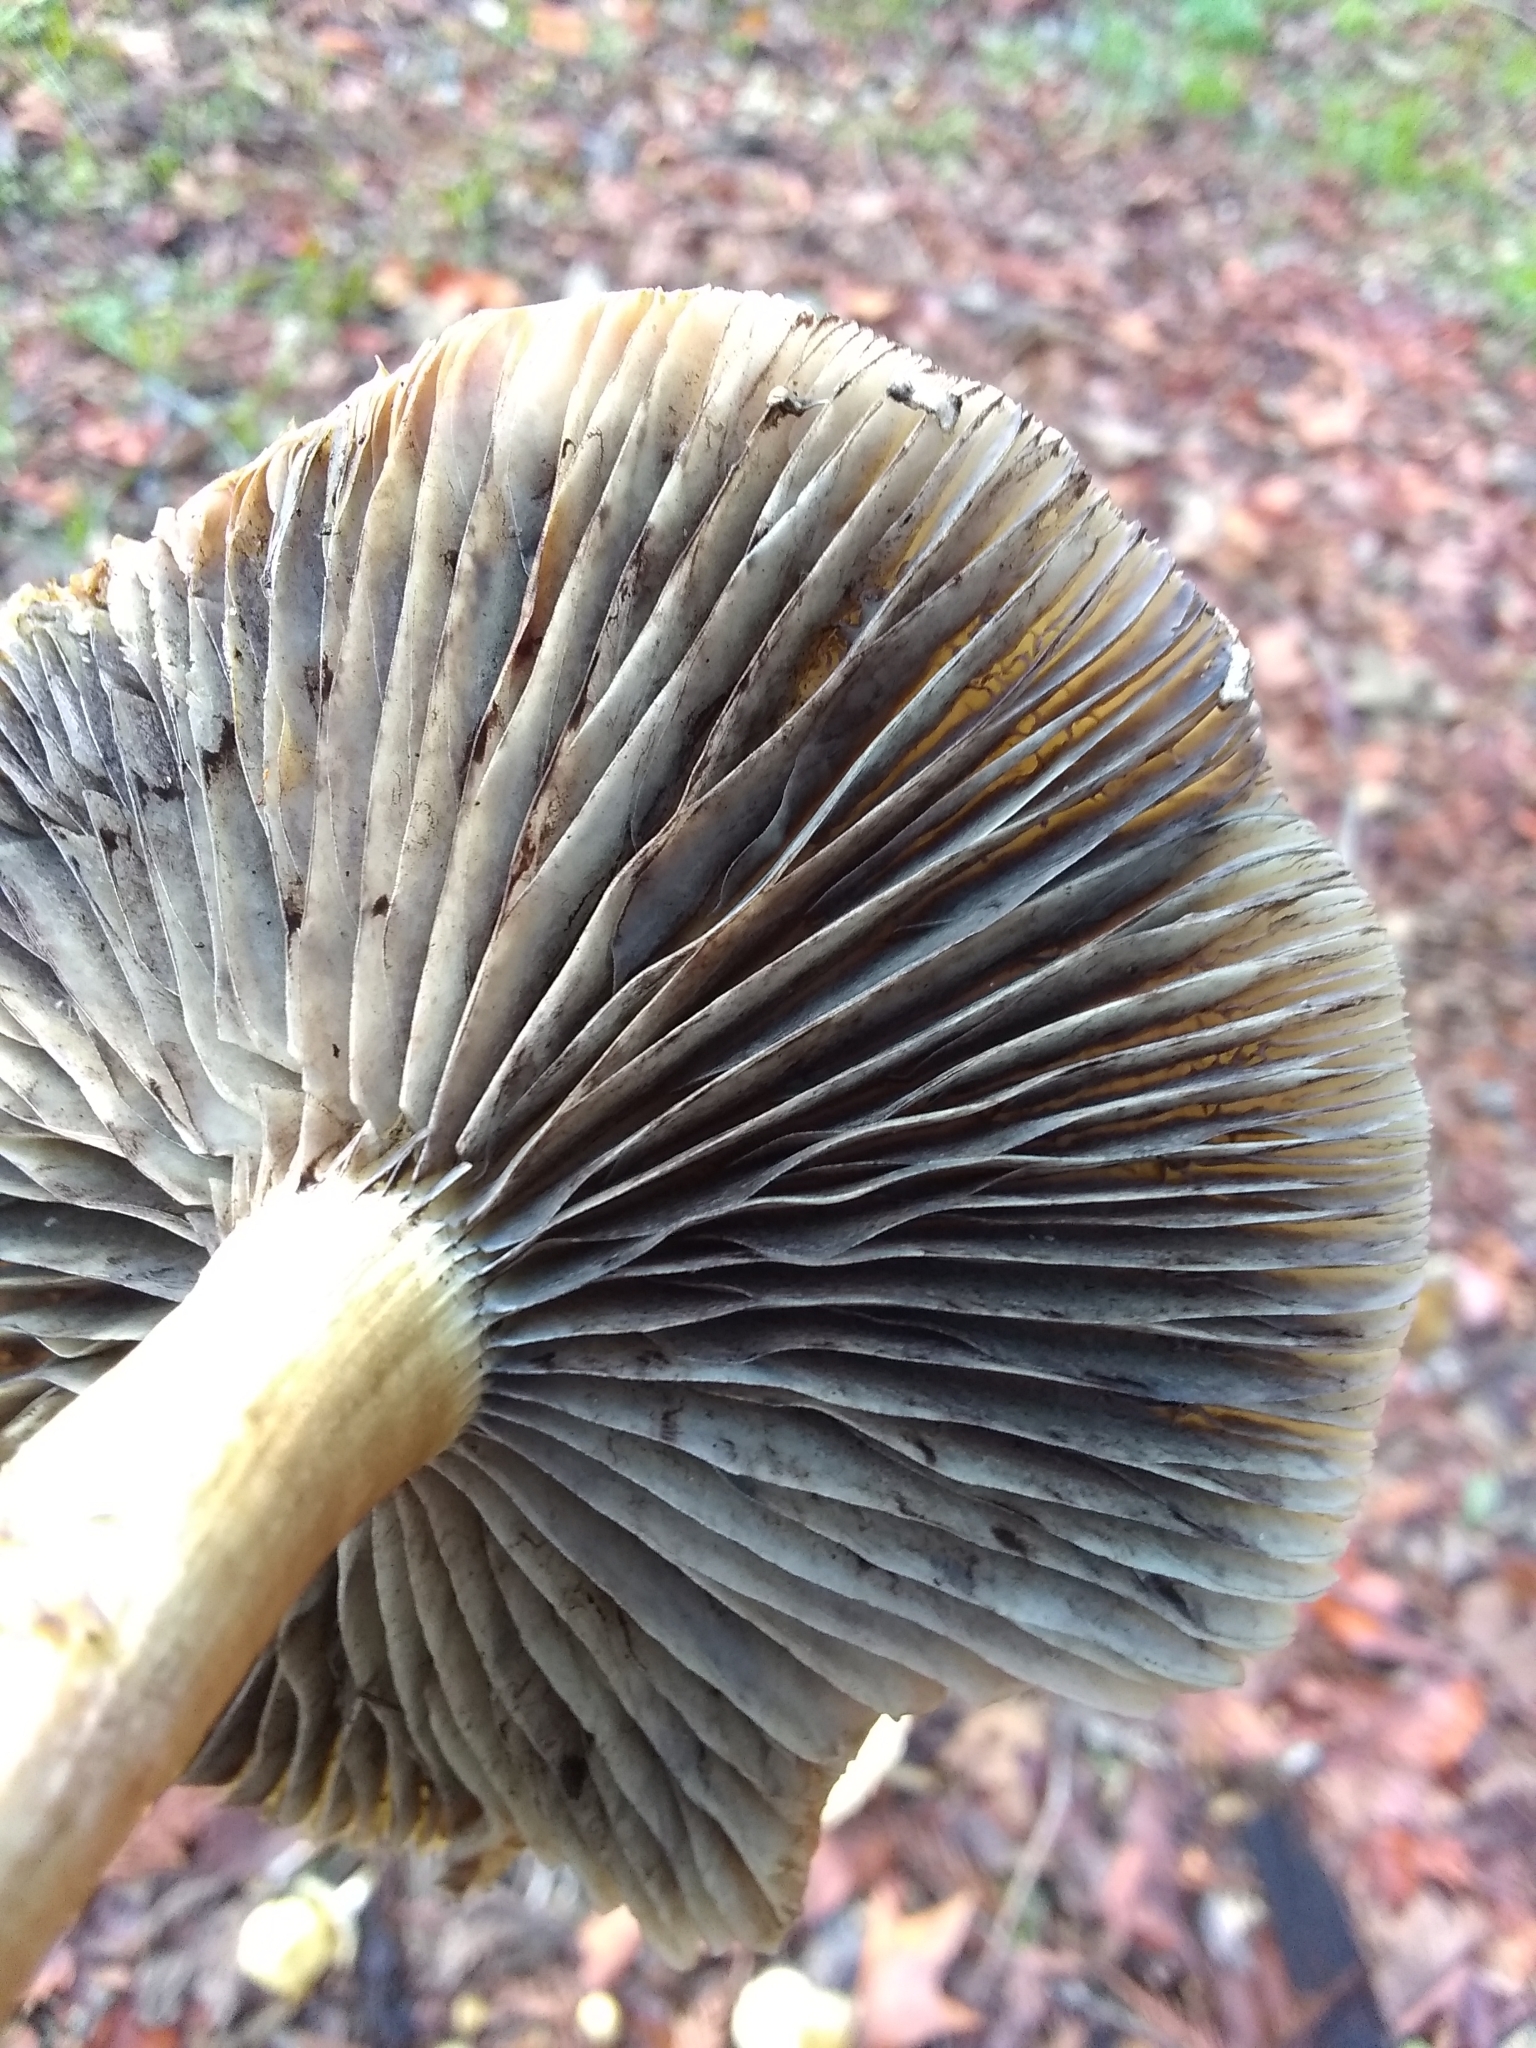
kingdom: Fungi
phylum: Basidiomycota
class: Agaricomycetes
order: Agaricales
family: Strophariaceae
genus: Leratiomyces
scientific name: Leratiomyces percevalii
